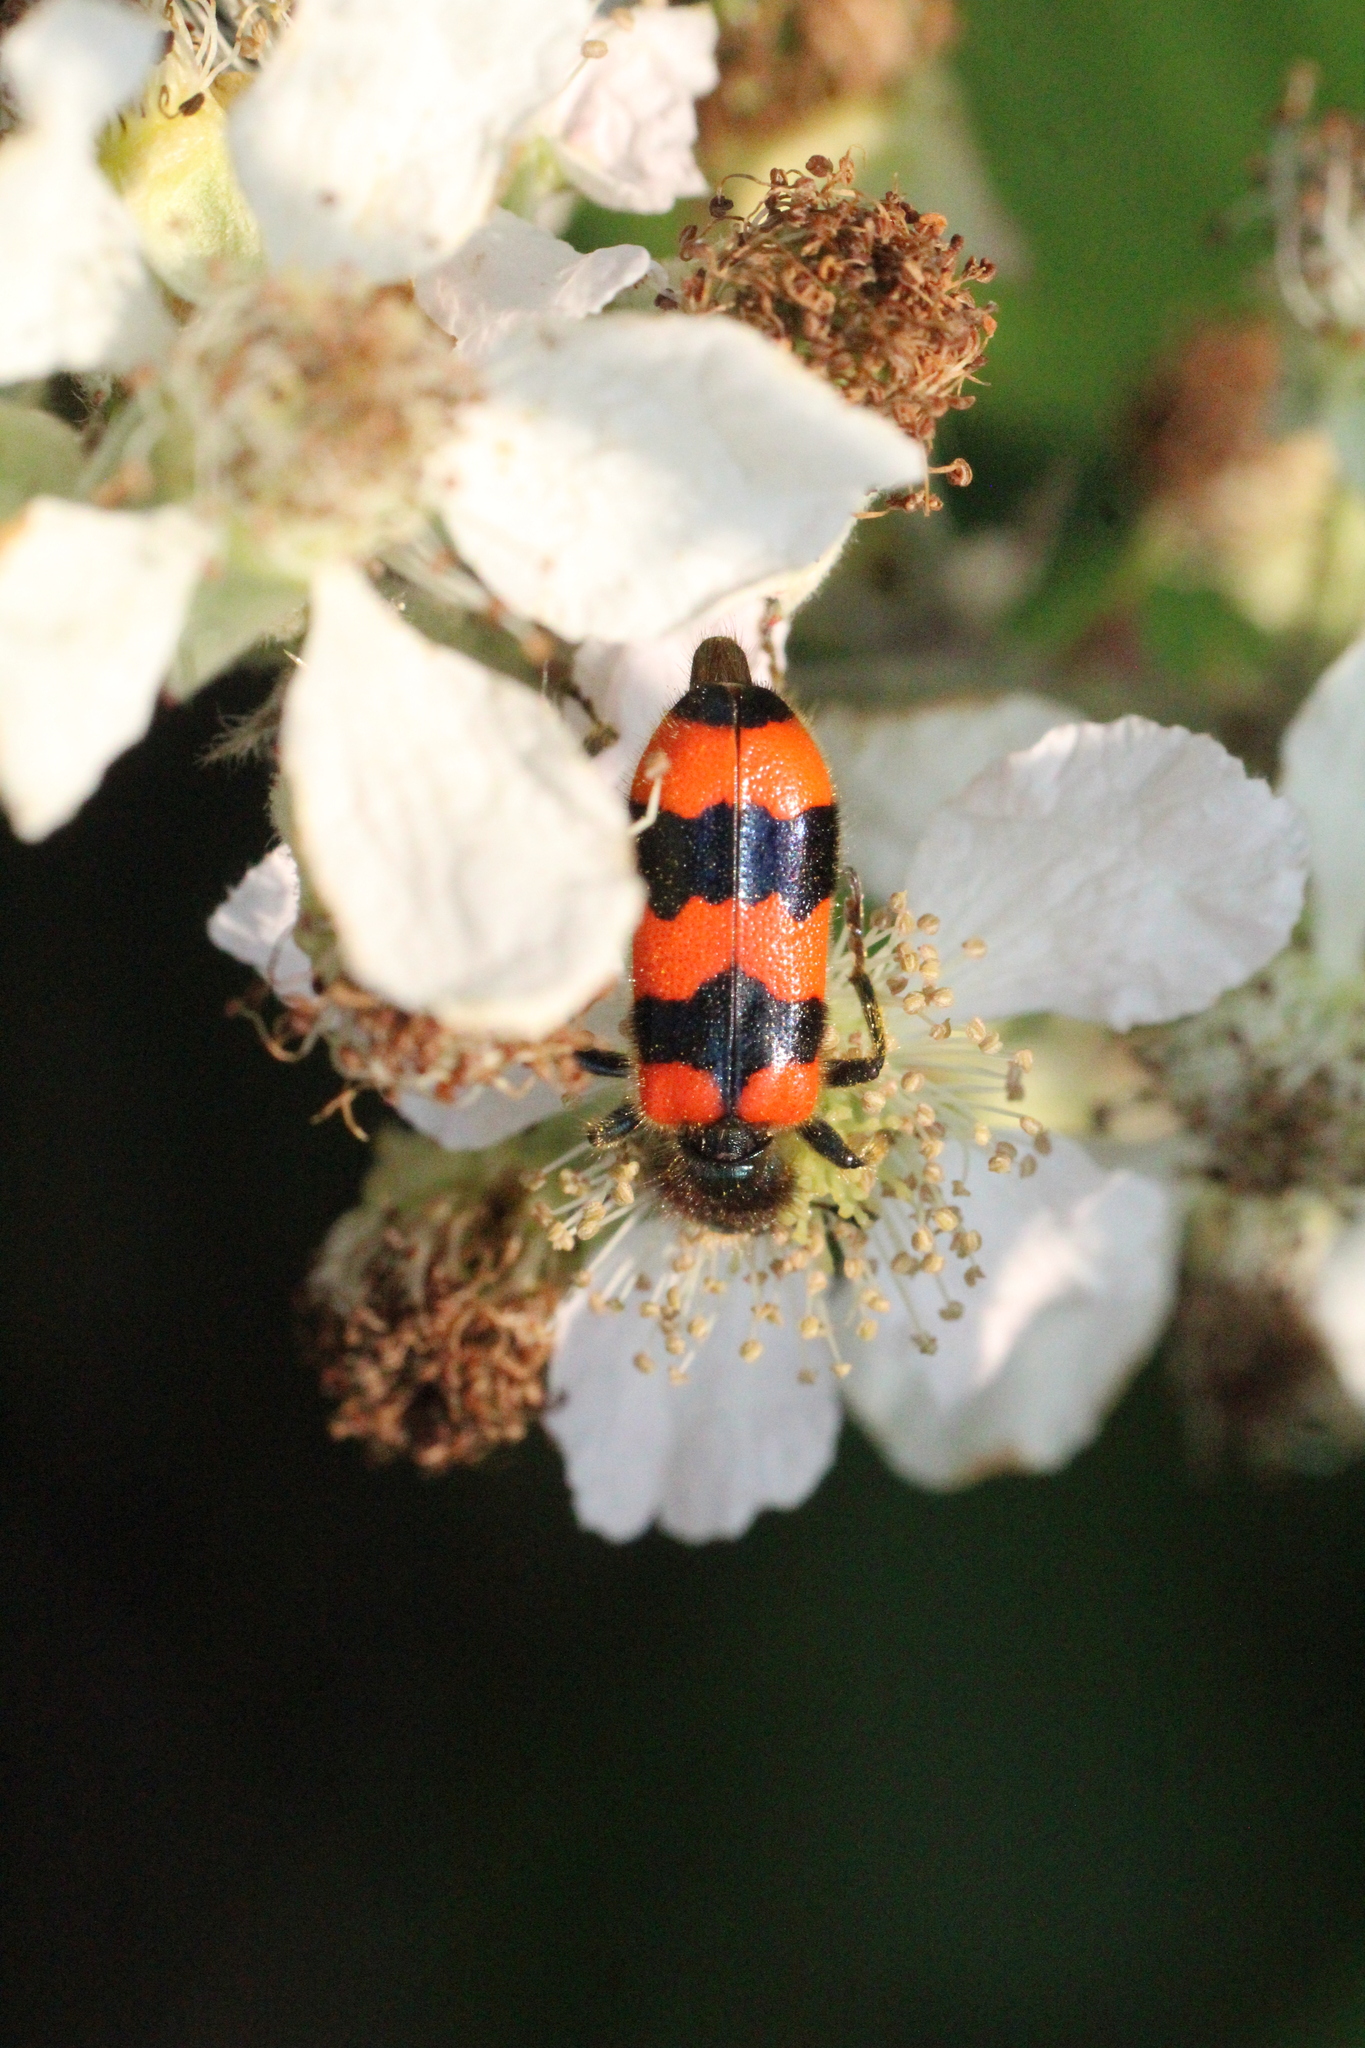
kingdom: Animalia
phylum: Arthropoda
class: Insecta
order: Coleoptera
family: Cleridae
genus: Trichodes
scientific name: Trichodes apiarius
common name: Bee-eating beetle
